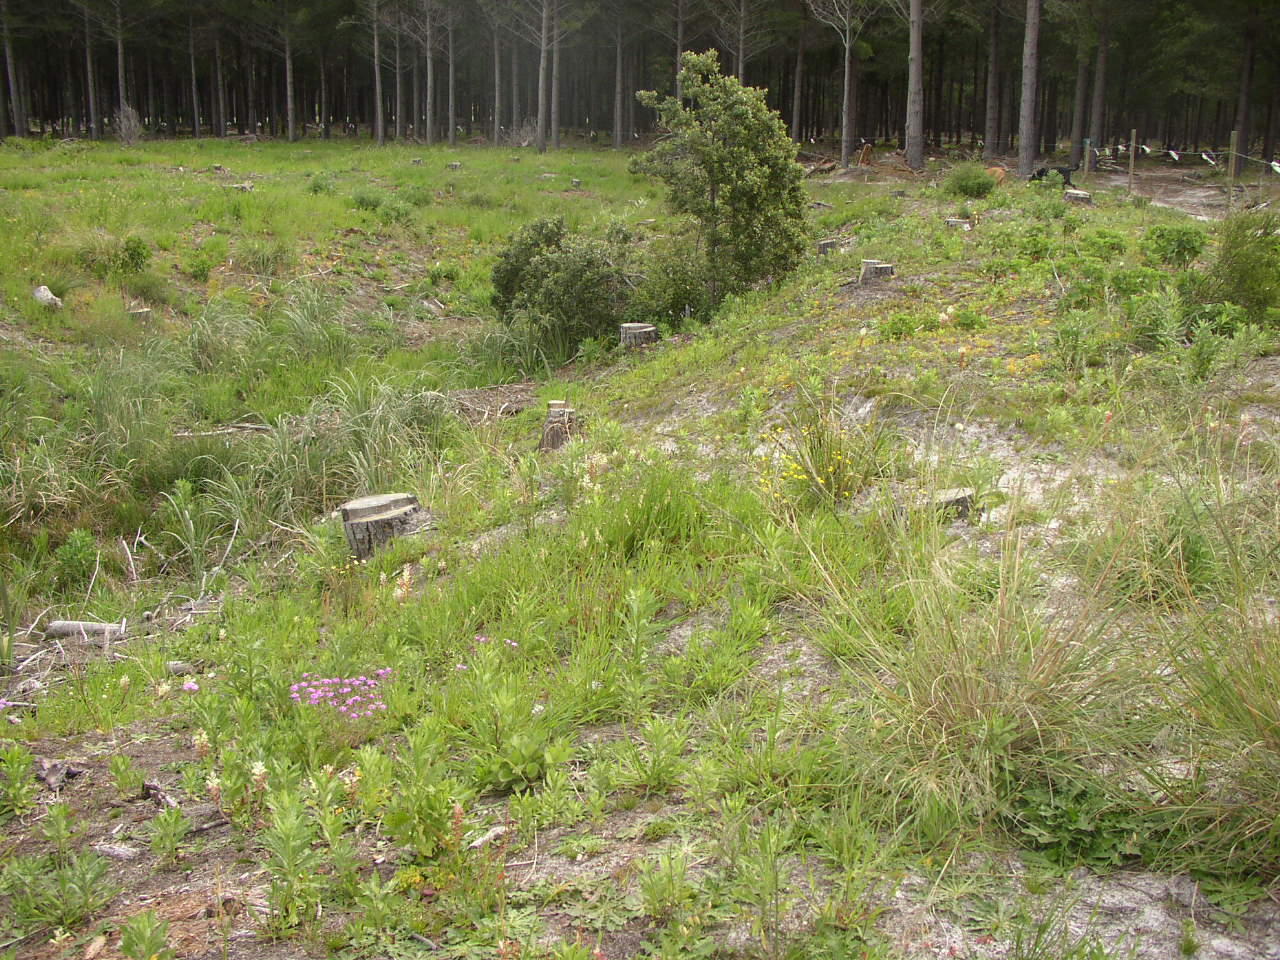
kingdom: Plantae
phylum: Tracheophyta
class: Magnoliopsida
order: Asterales
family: Asteraceae
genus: Senecio
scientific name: Senecio pterophorus
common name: Shoddy ragwort
